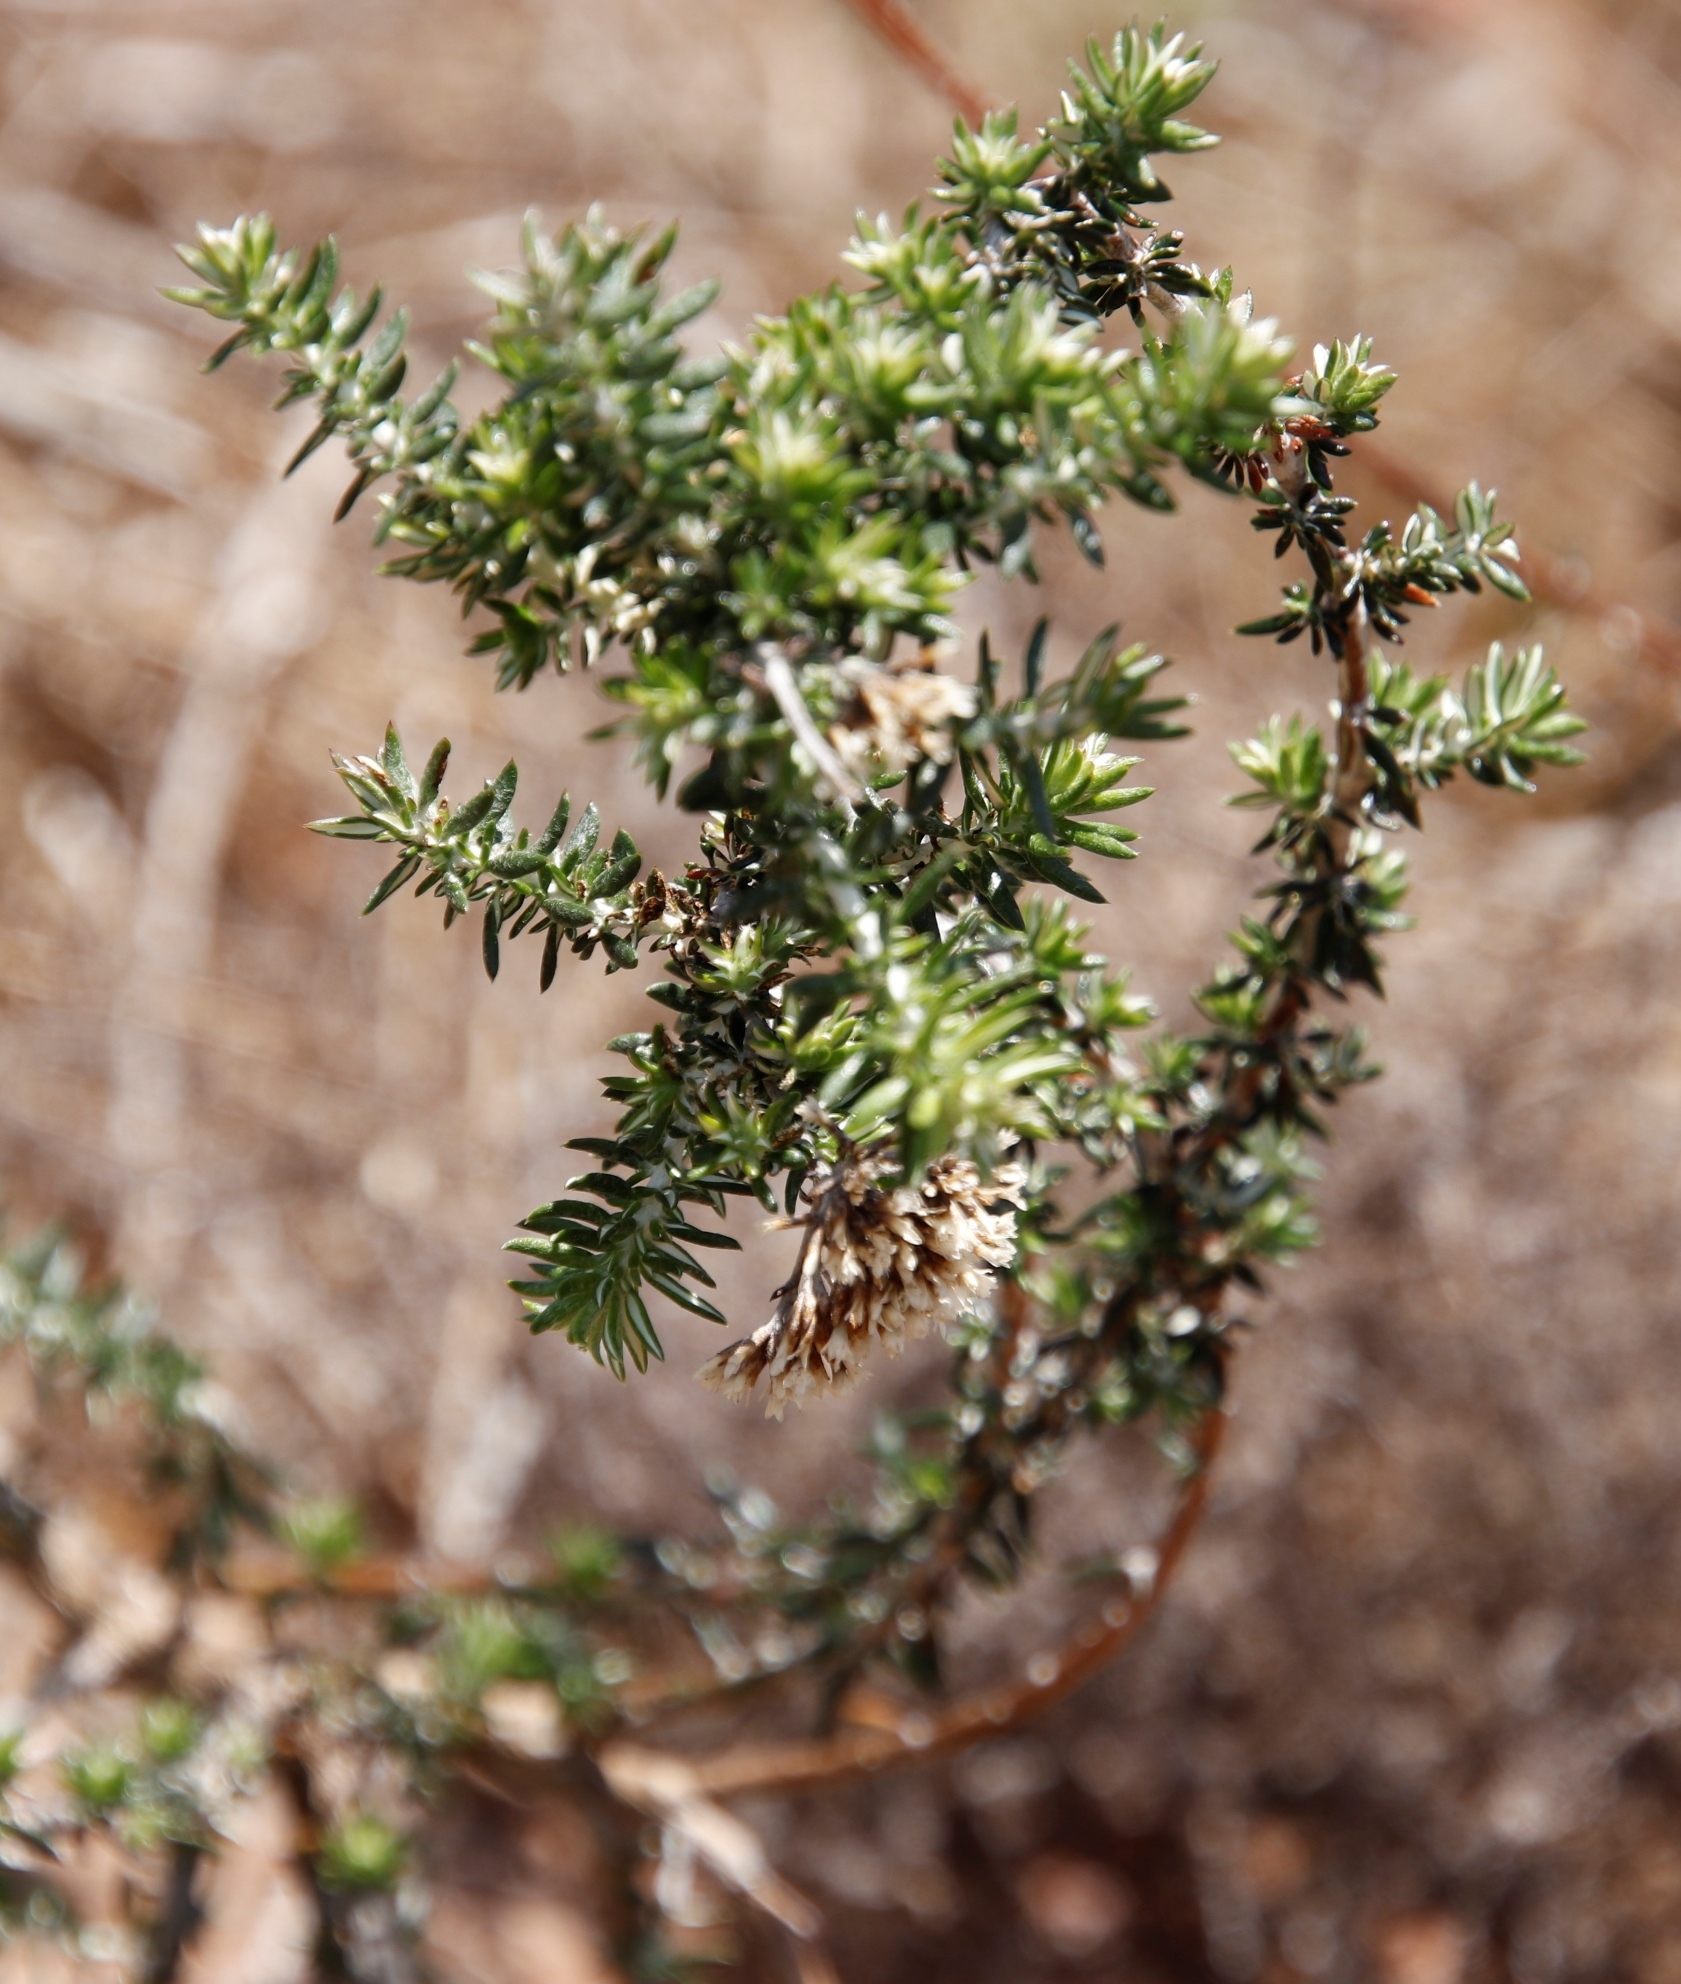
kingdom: Plantae
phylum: Tracheophyta
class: Magnoliopsida
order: Asterales
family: Asteraceae
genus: Metalasia
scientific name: Metalasia densa
